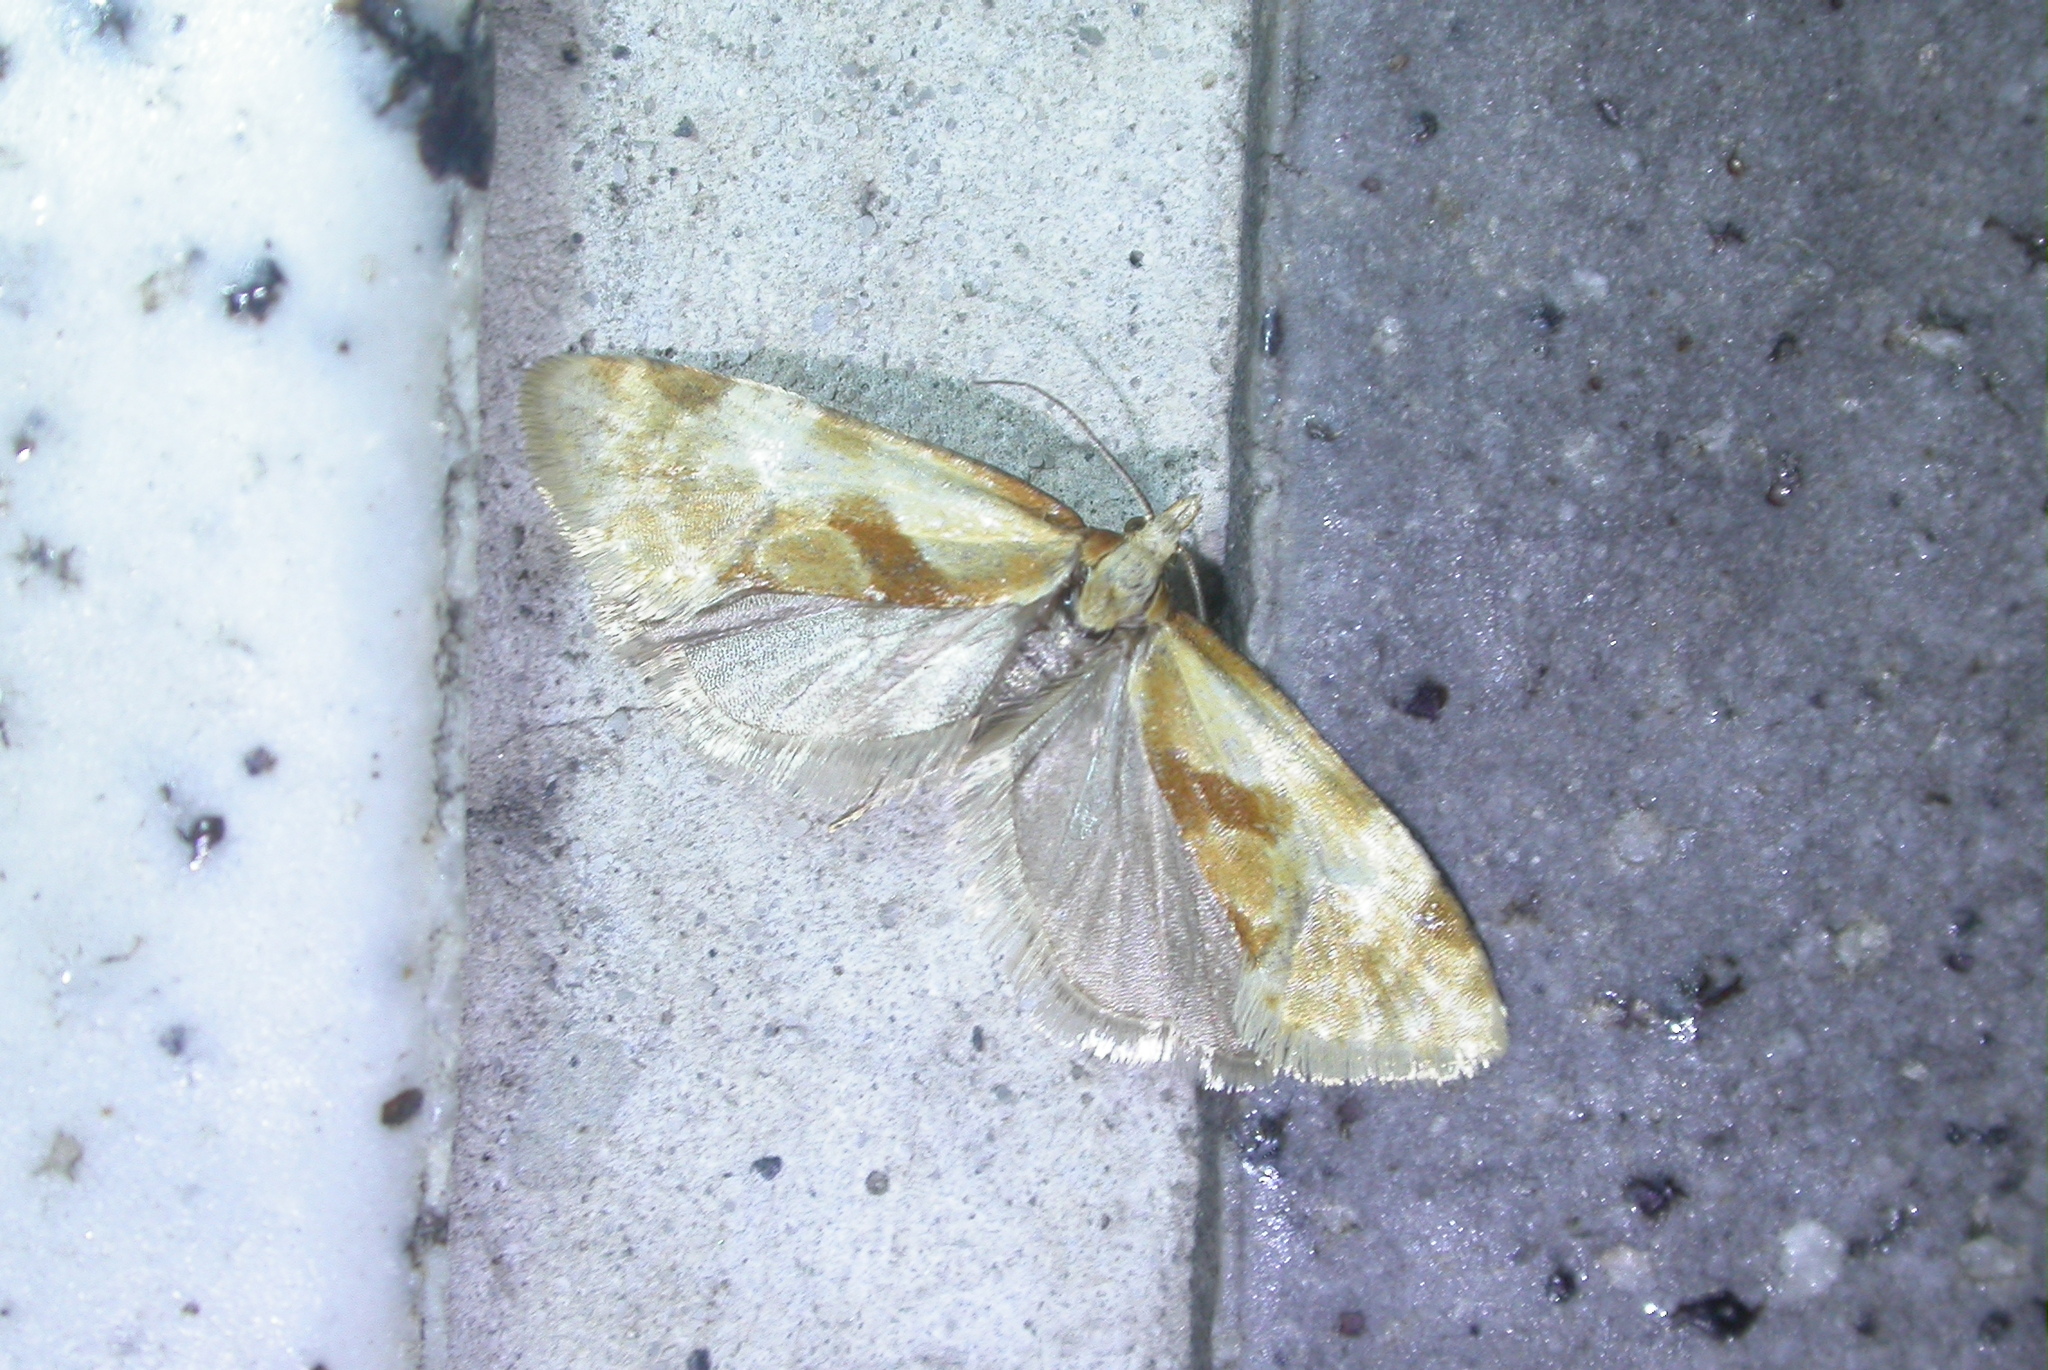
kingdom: Animalia
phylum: Arthropoda
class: Insecta
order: Lepidoptera
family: Tortricidae
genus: Aethes
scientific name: Aethes taiwanica
